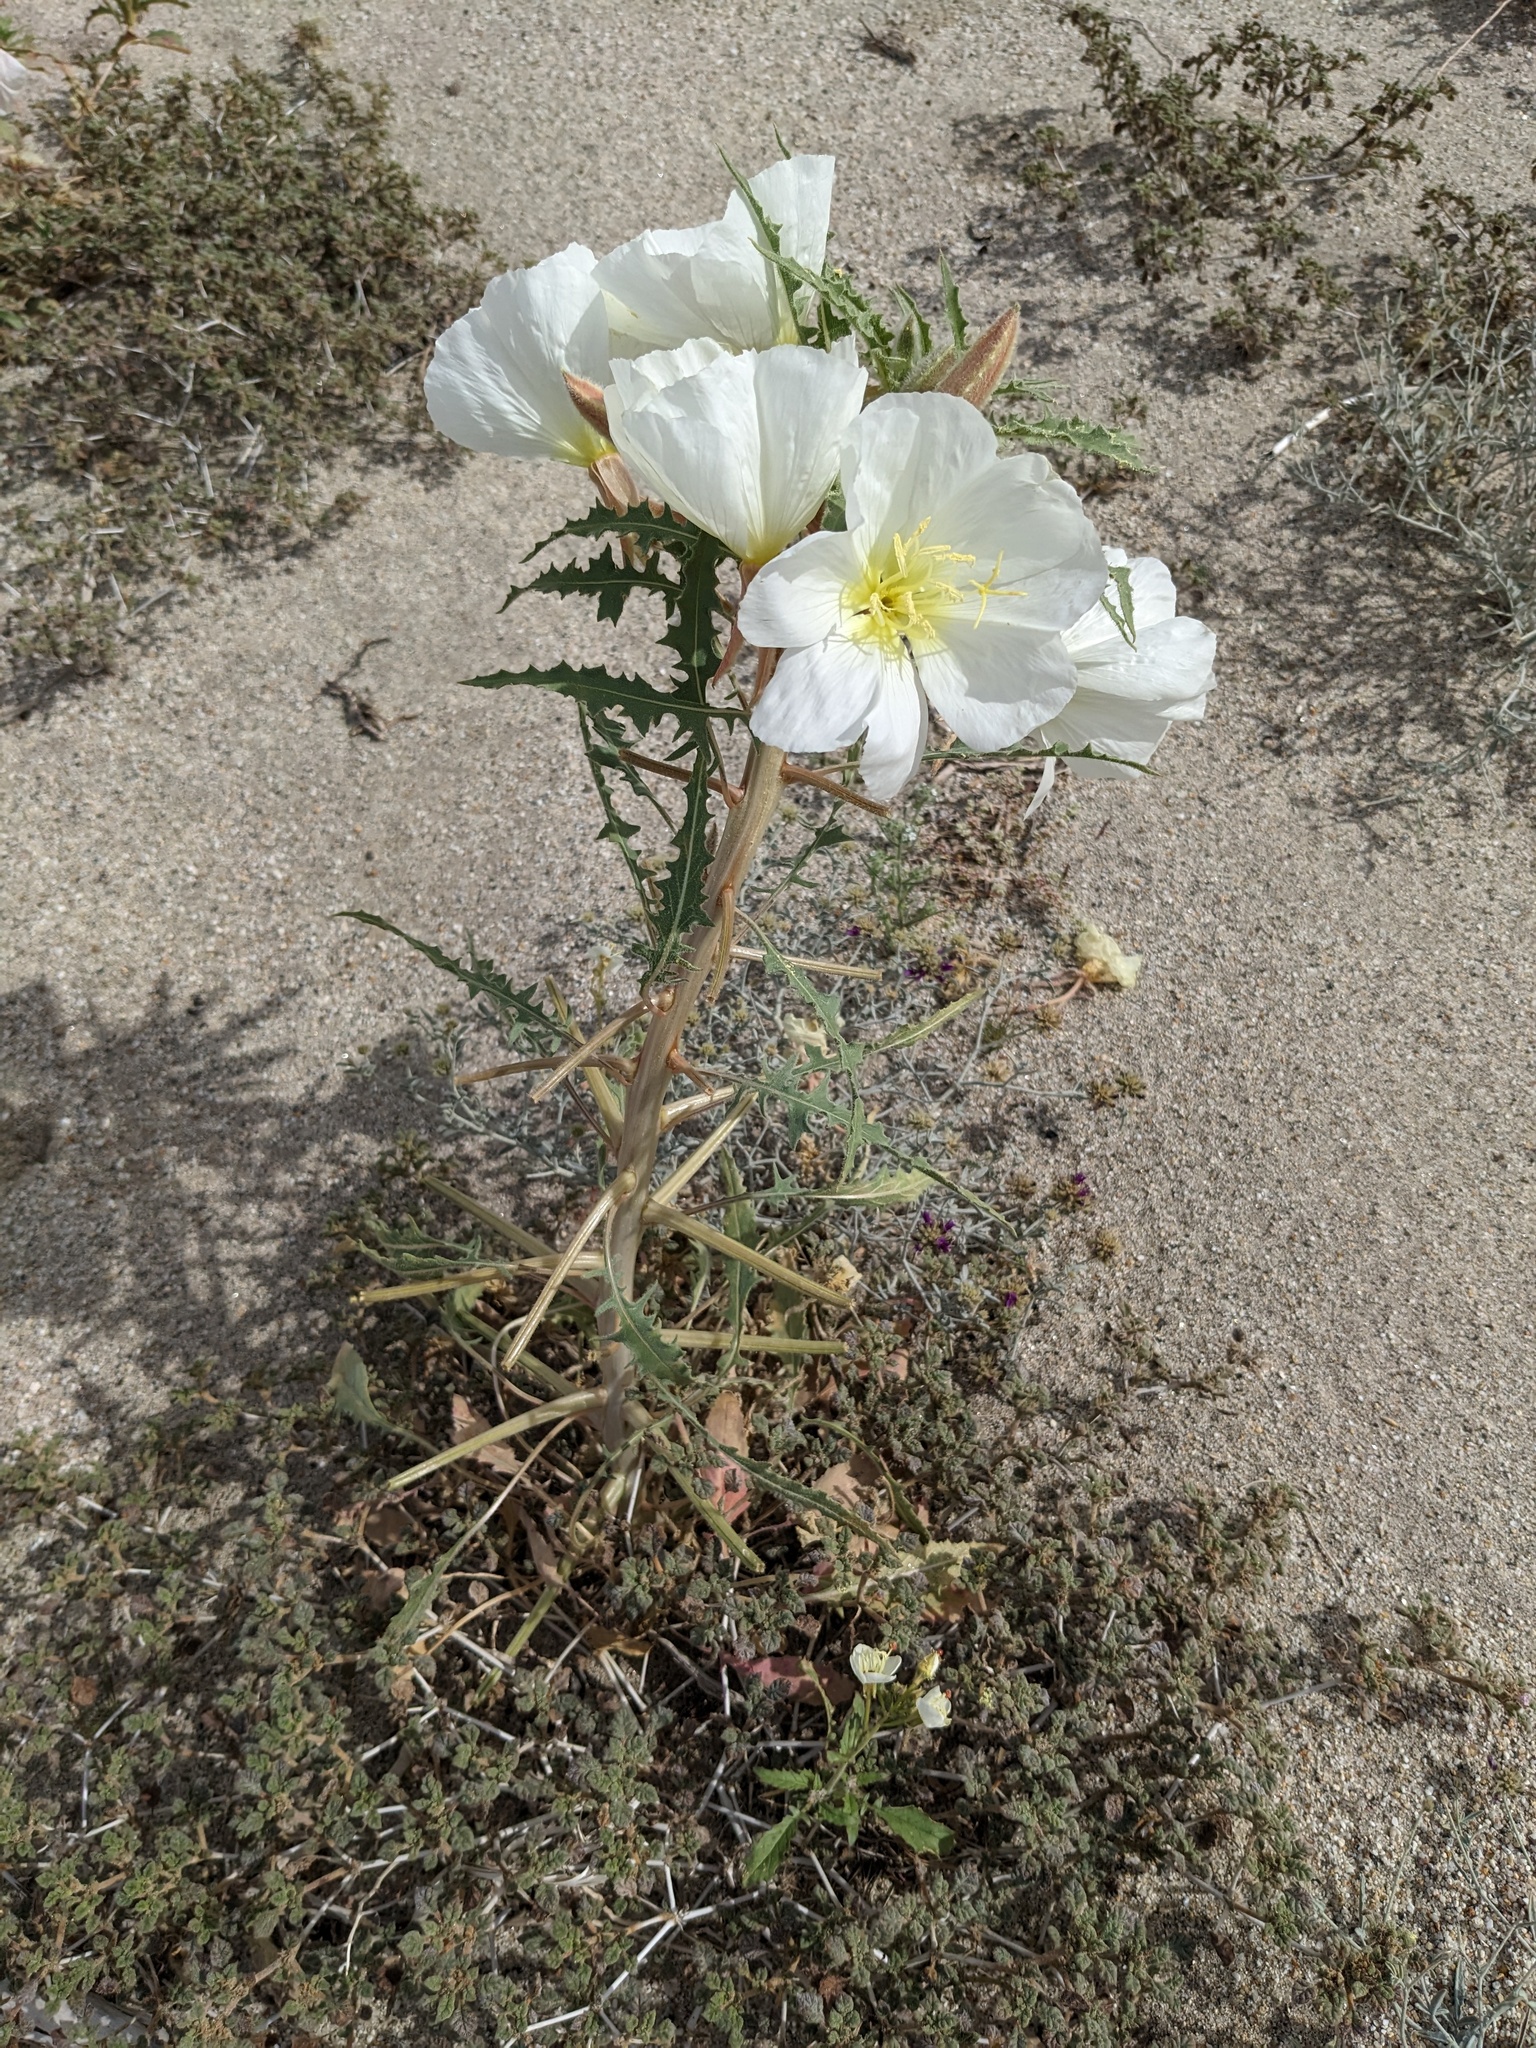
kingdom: Plantae
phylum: Tracheophyta
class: Magnoliopsida
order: Myrtales
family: Onagraceae
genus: Oenothera
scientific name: Oenothera deltoides
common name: Basket evening-primrose
